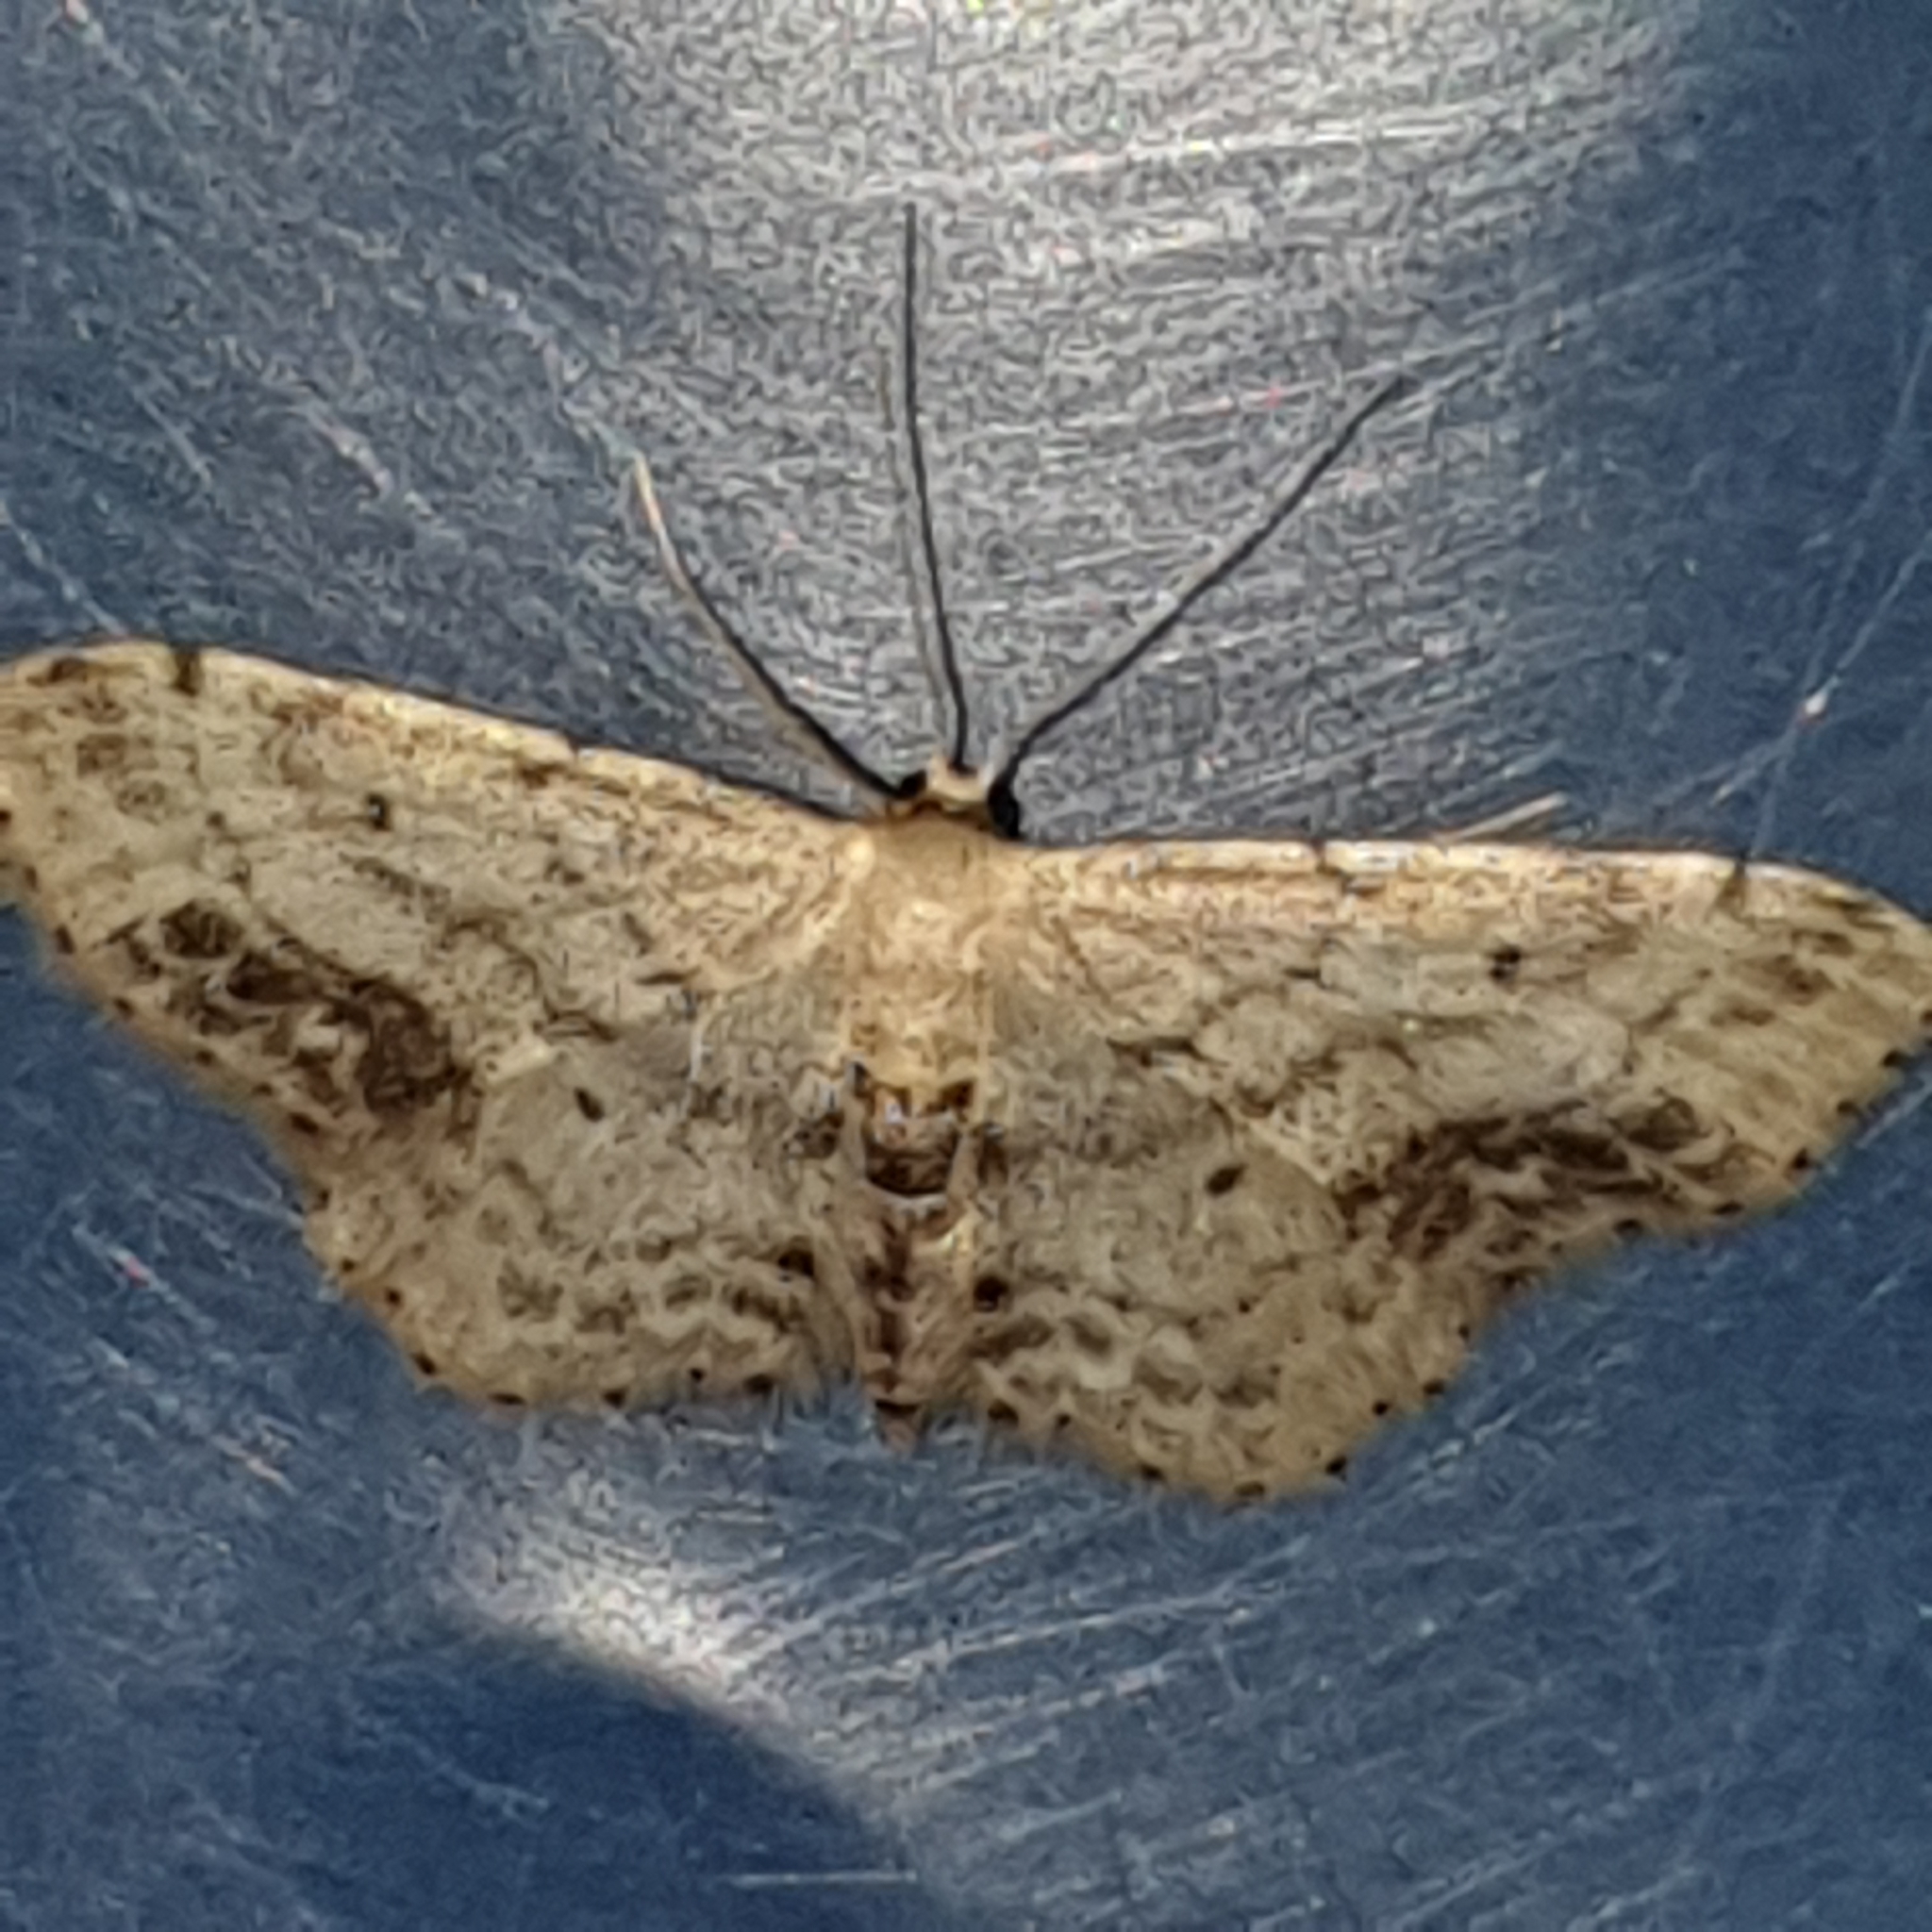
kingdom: Animalia
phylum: Arthropoda
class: Insecta
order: Lepidoptera
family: Geometridae
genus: Idaea
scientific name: Idaea dimidiata
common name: Single-dotted wave
